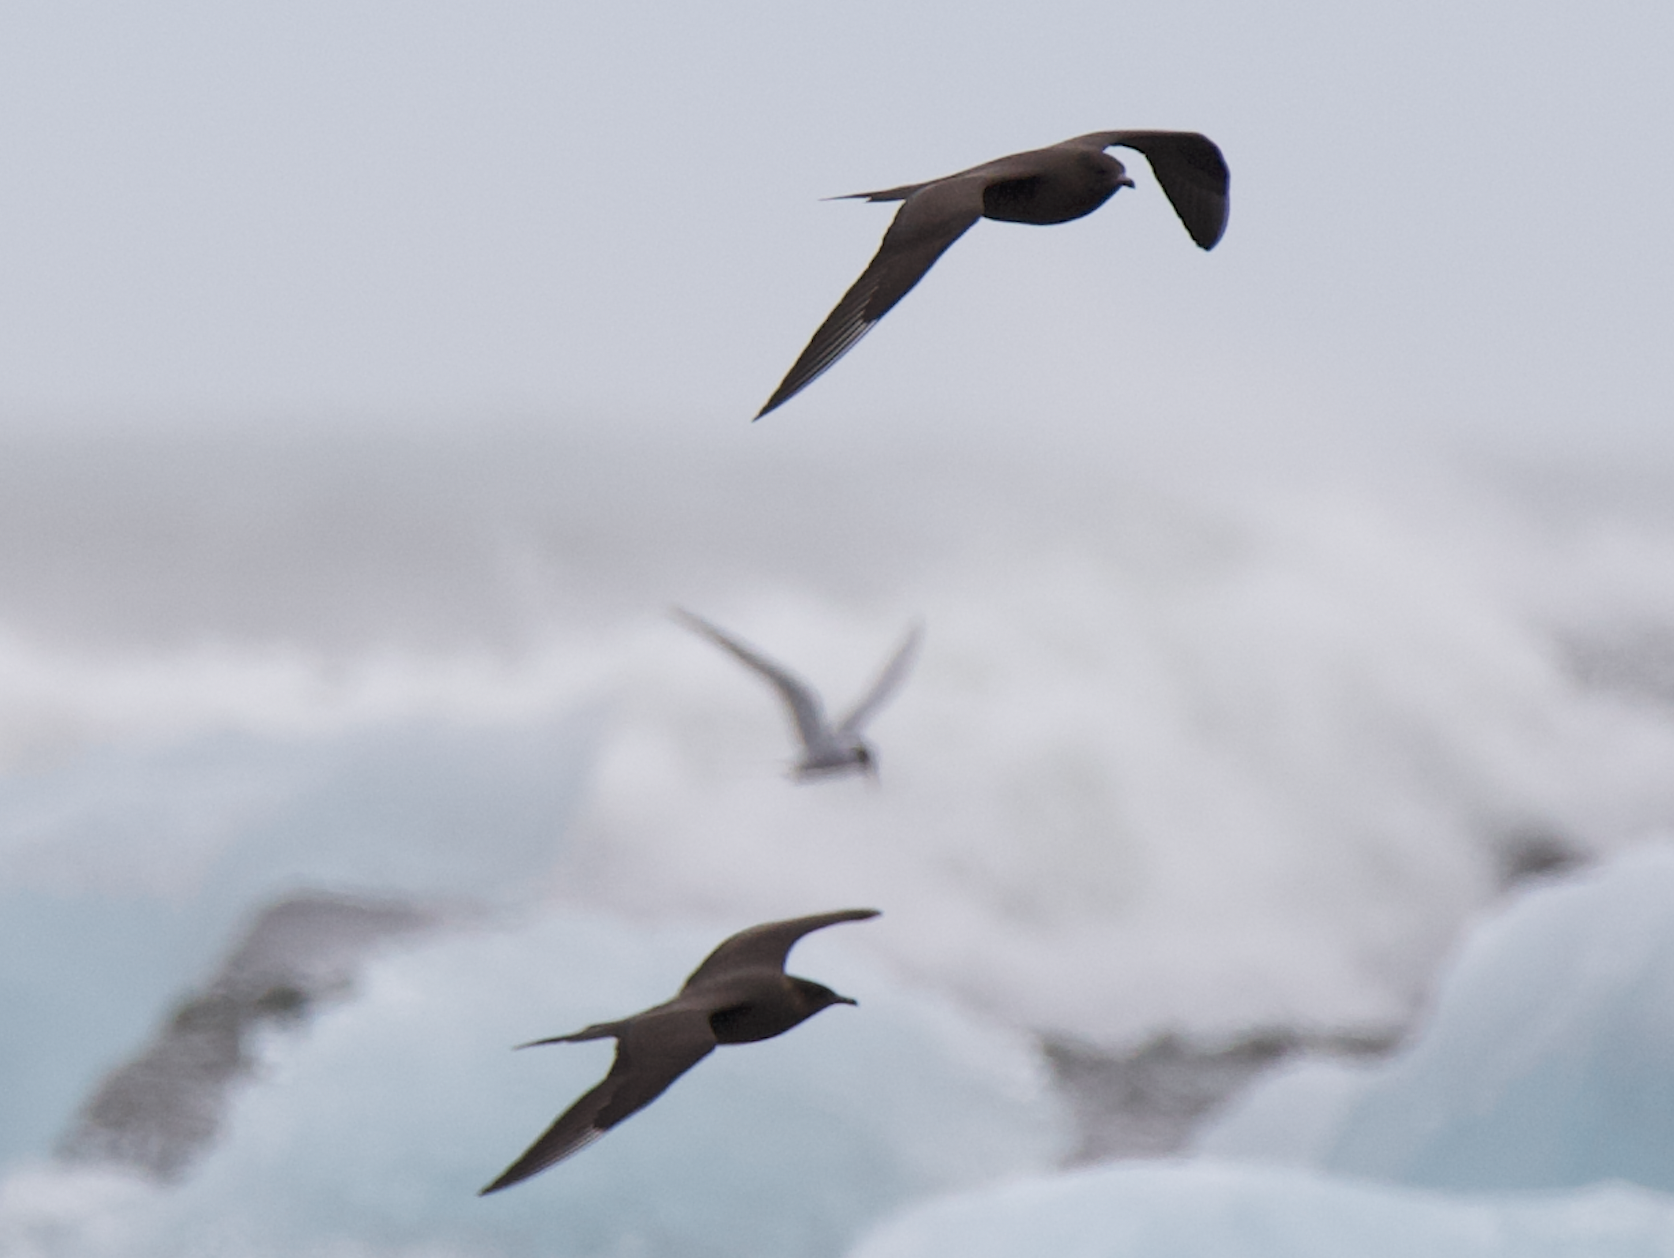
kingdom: Animalia
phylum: Chordata
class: Aves
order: Charadriiformes
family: Stercorariidae
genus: Stercorarius
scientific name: Stercorarius parasiticus
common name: Parasitic jaeger
